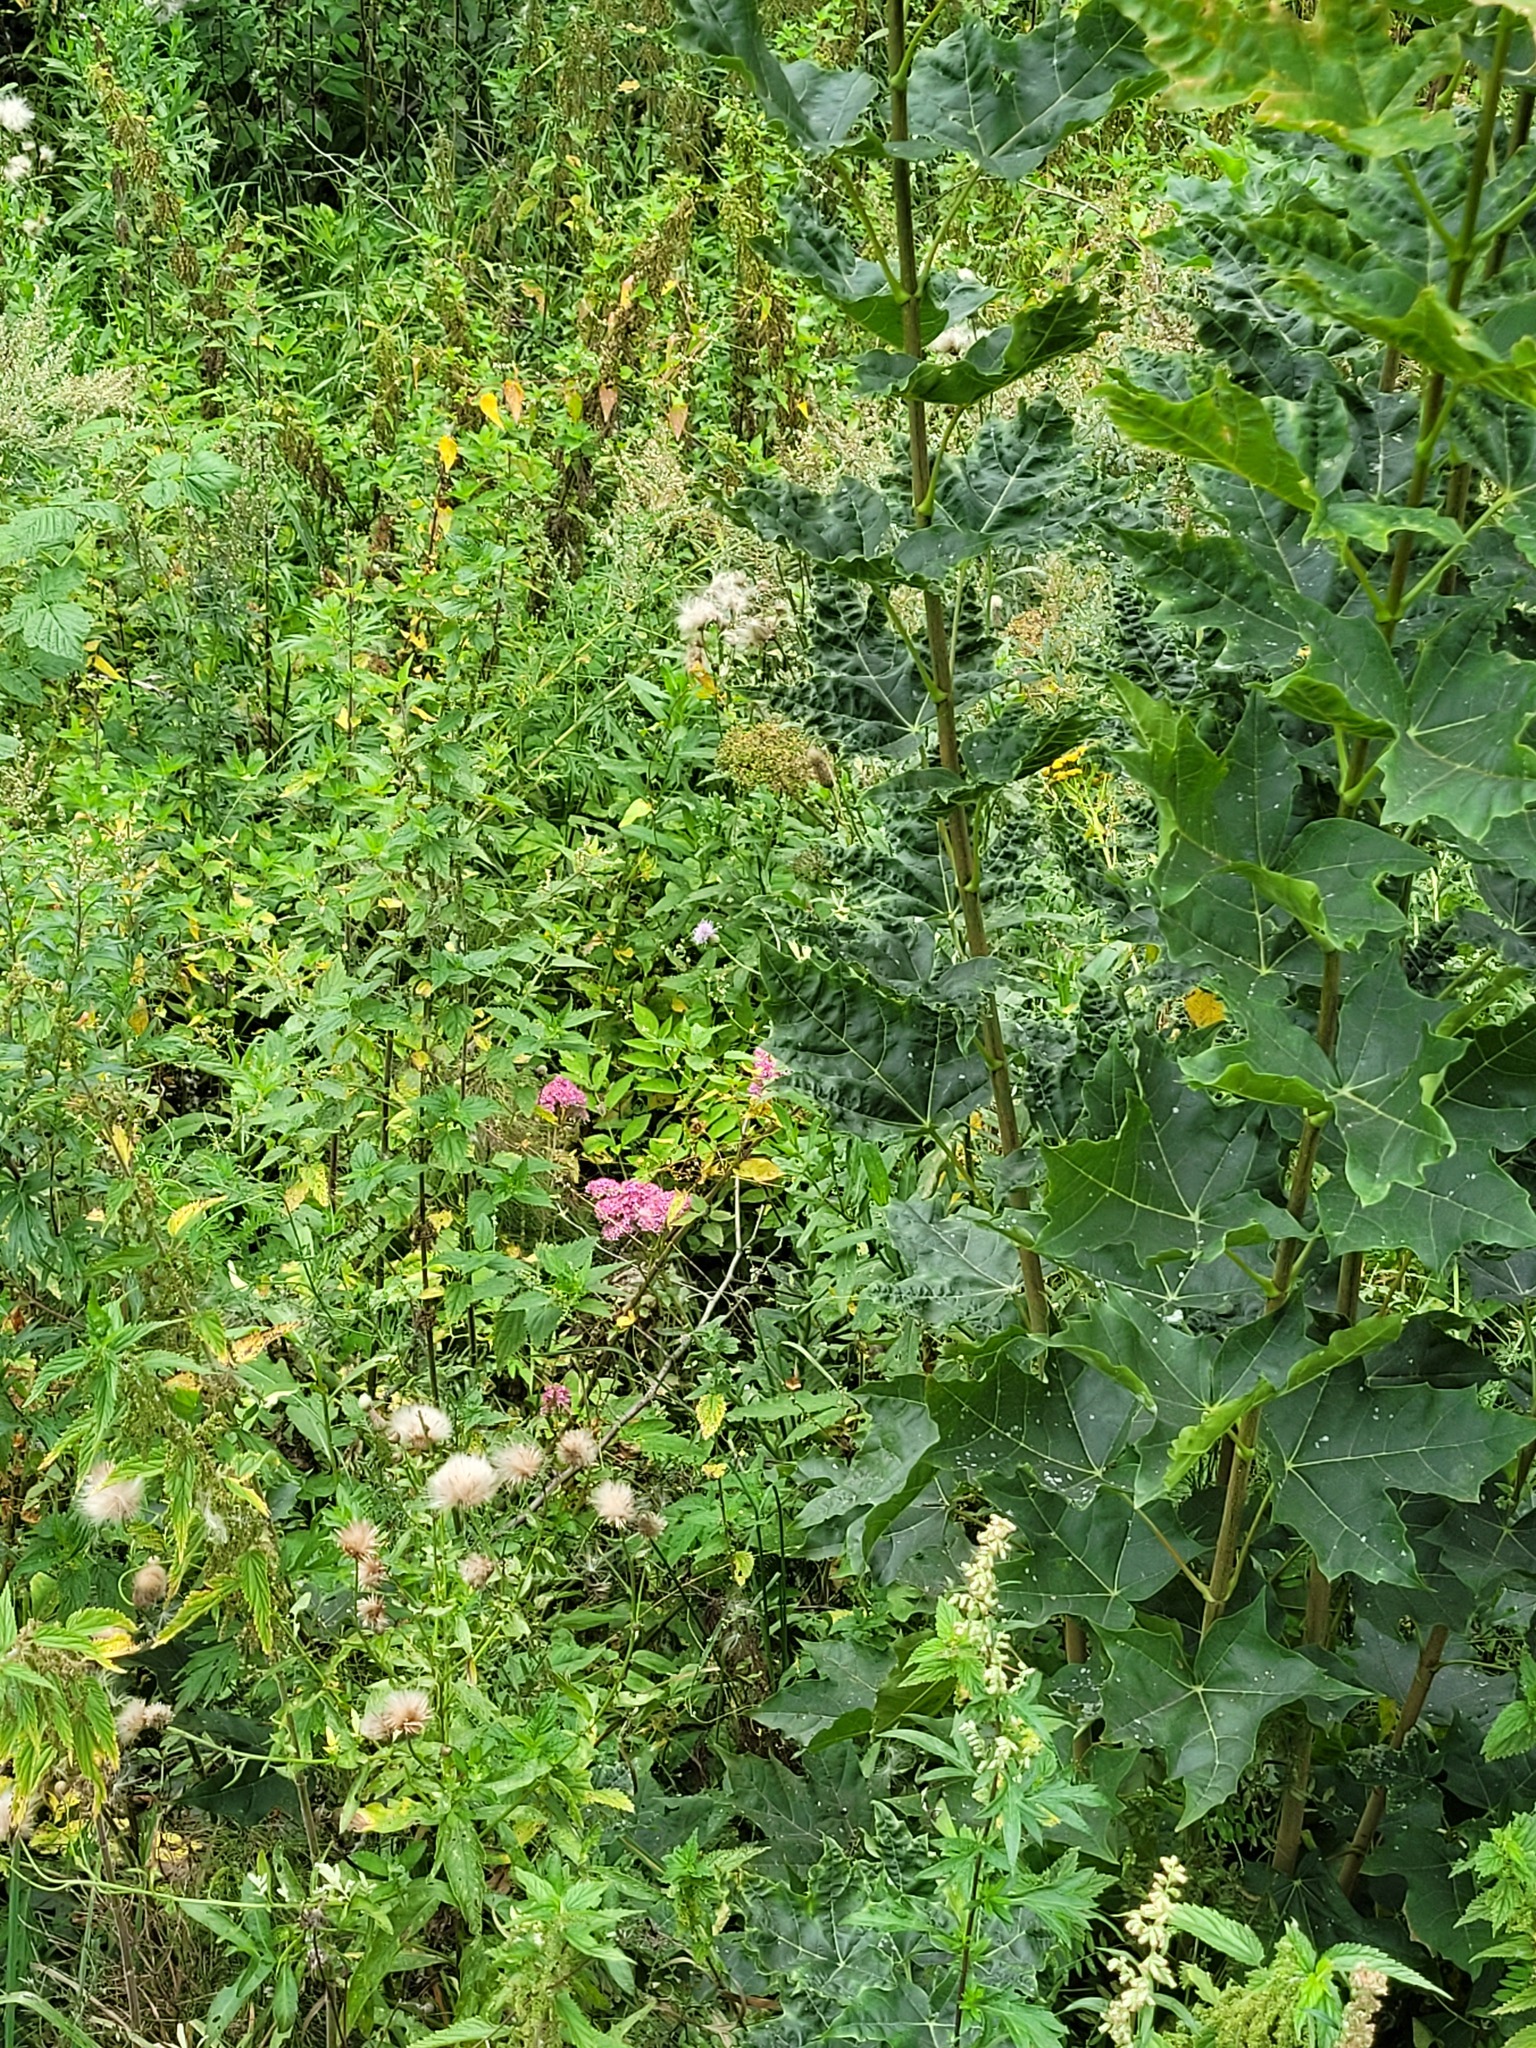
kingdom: Plantae
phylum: Tracheophyta
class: Magnoliopsida
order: Saxifragales
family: Crassulaceae
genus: Hylotelephium
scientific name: Hylotelephium telephium
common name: Live-forever
